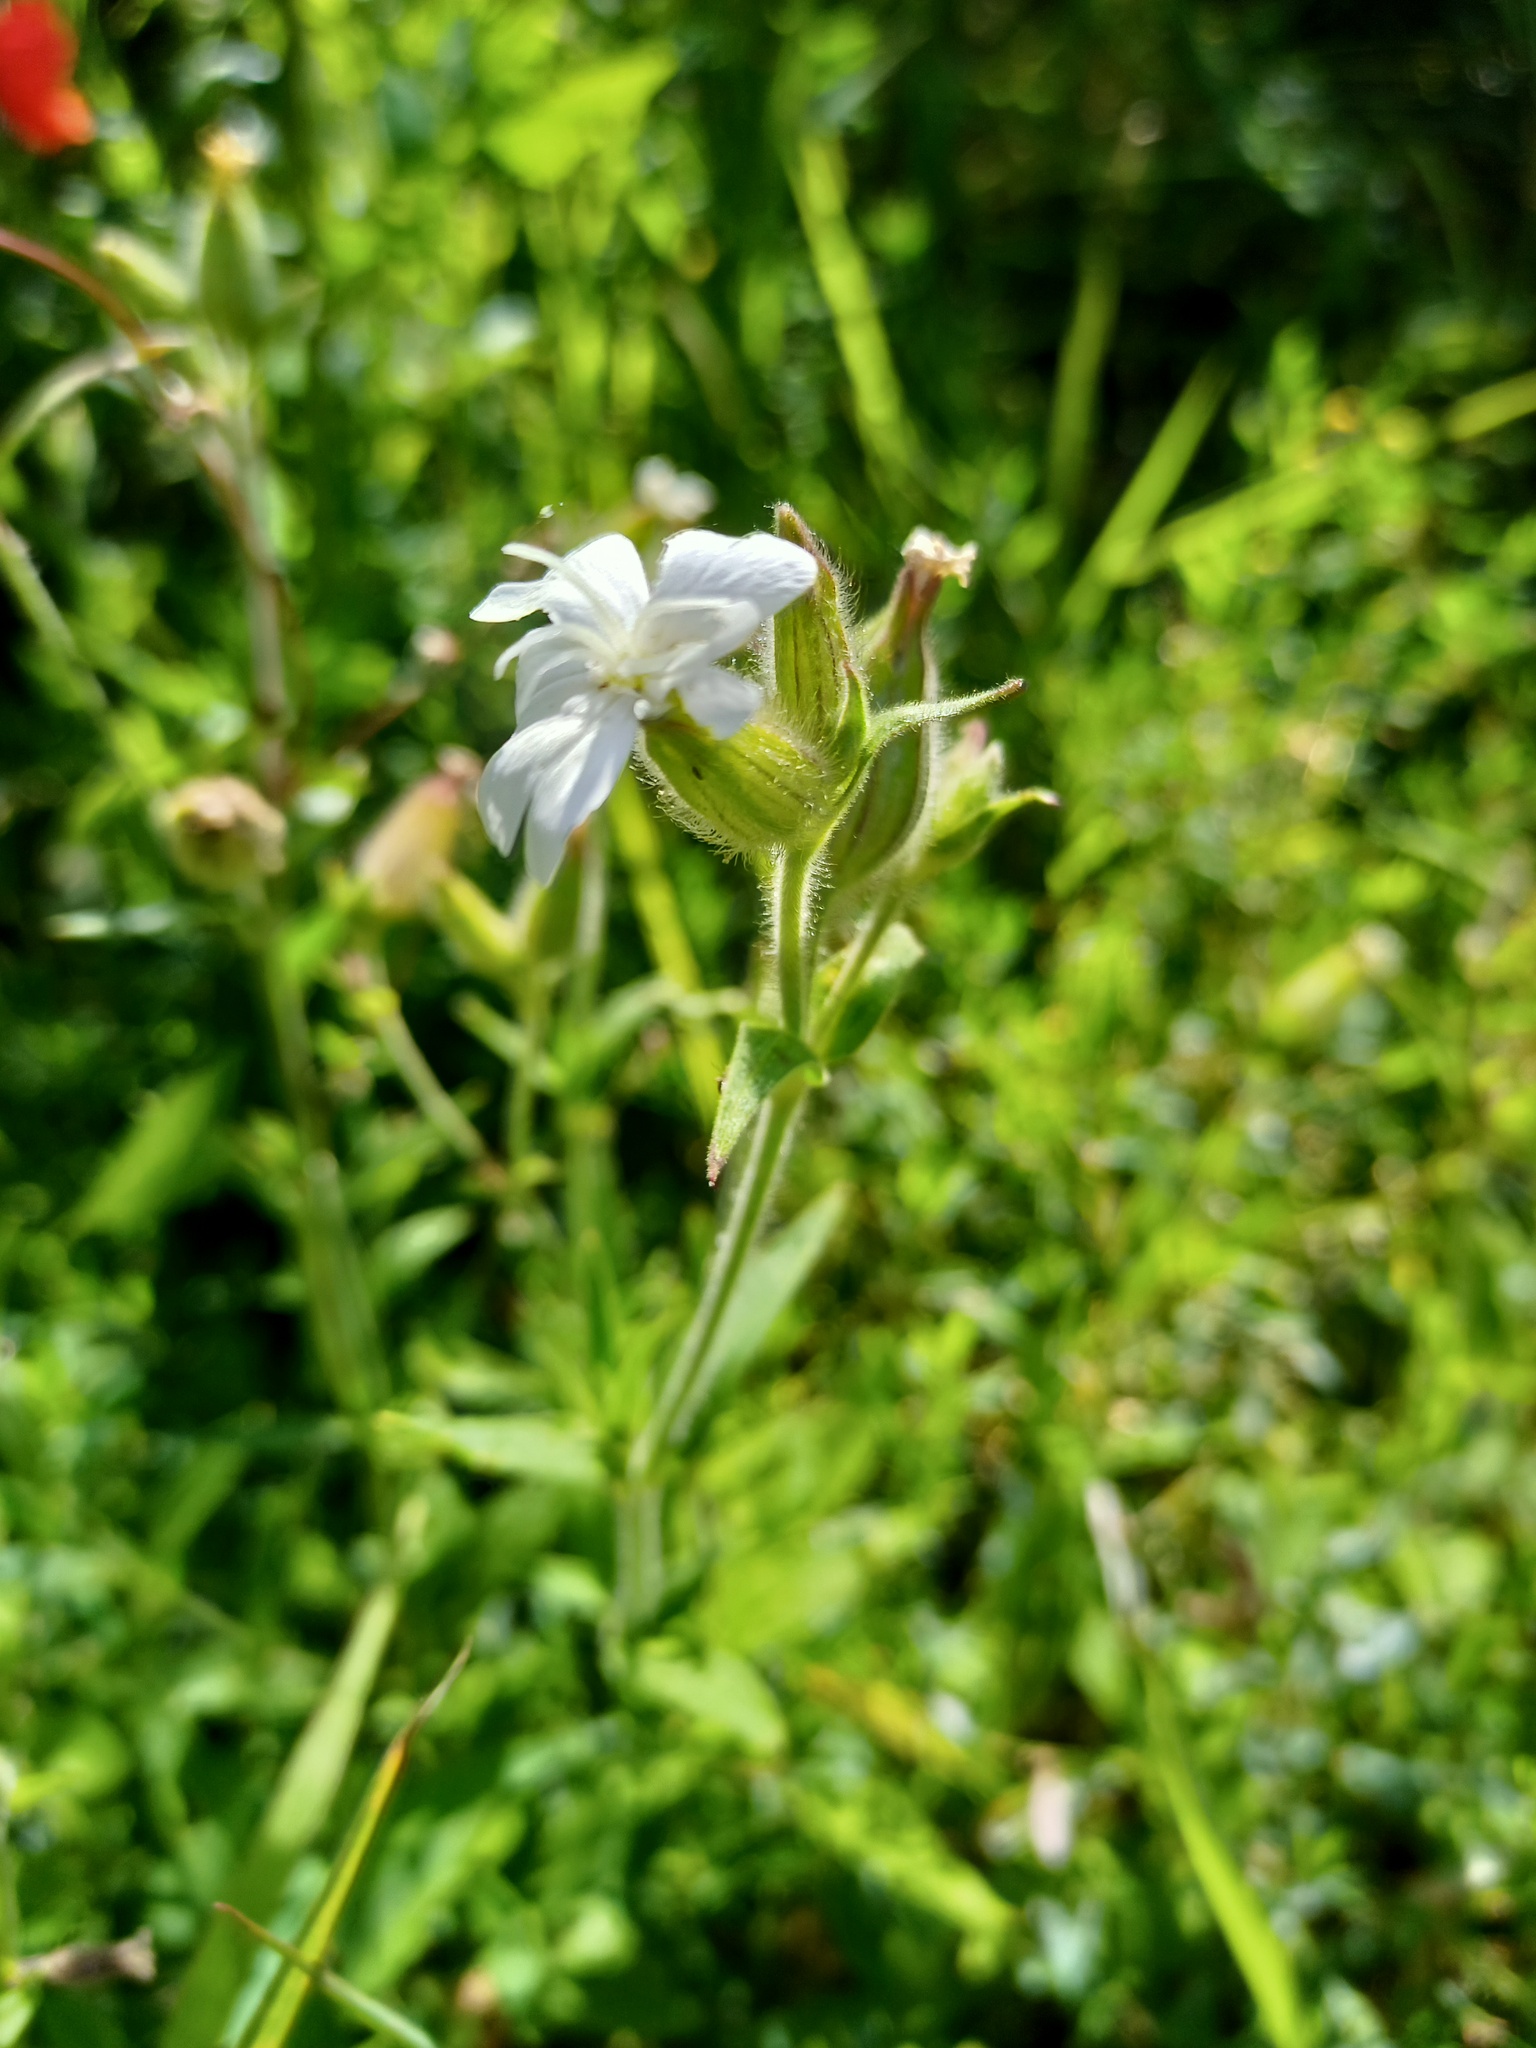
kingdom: Plantae
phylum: Tracheophyta
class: Magnoliopsida
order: Caryophyllales
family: Caryophyllaceae
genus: Silene
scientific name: Silene latifolia
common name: White campion
